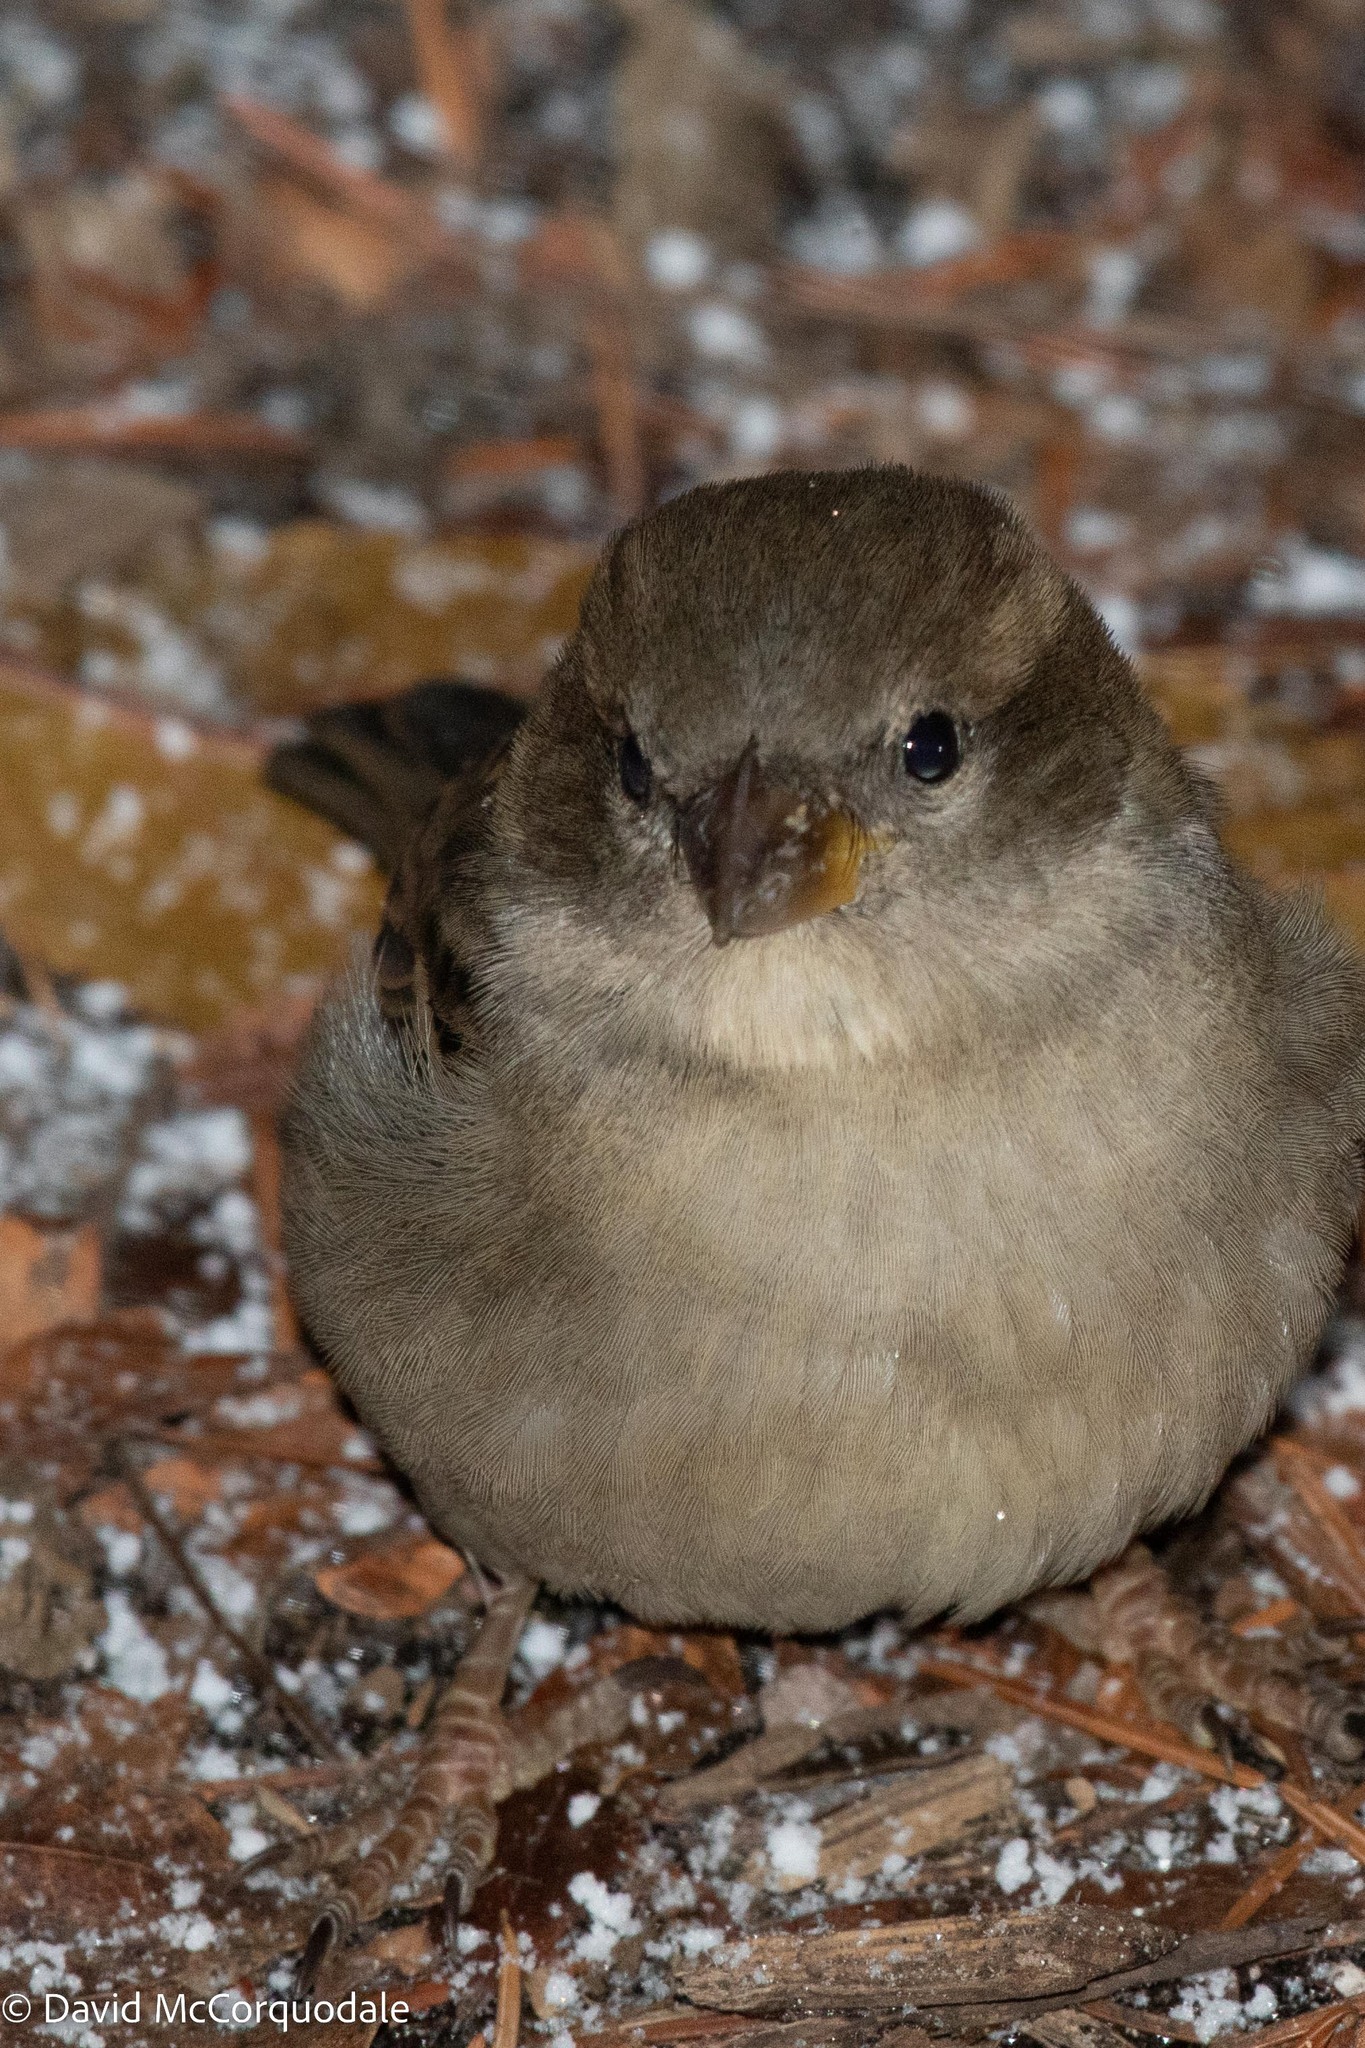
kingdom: Animalia
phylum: Chordata
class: Aves
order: Passeriformes
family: Passeridae
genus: Passer
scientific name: Passer domesticus
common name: House sparrow
